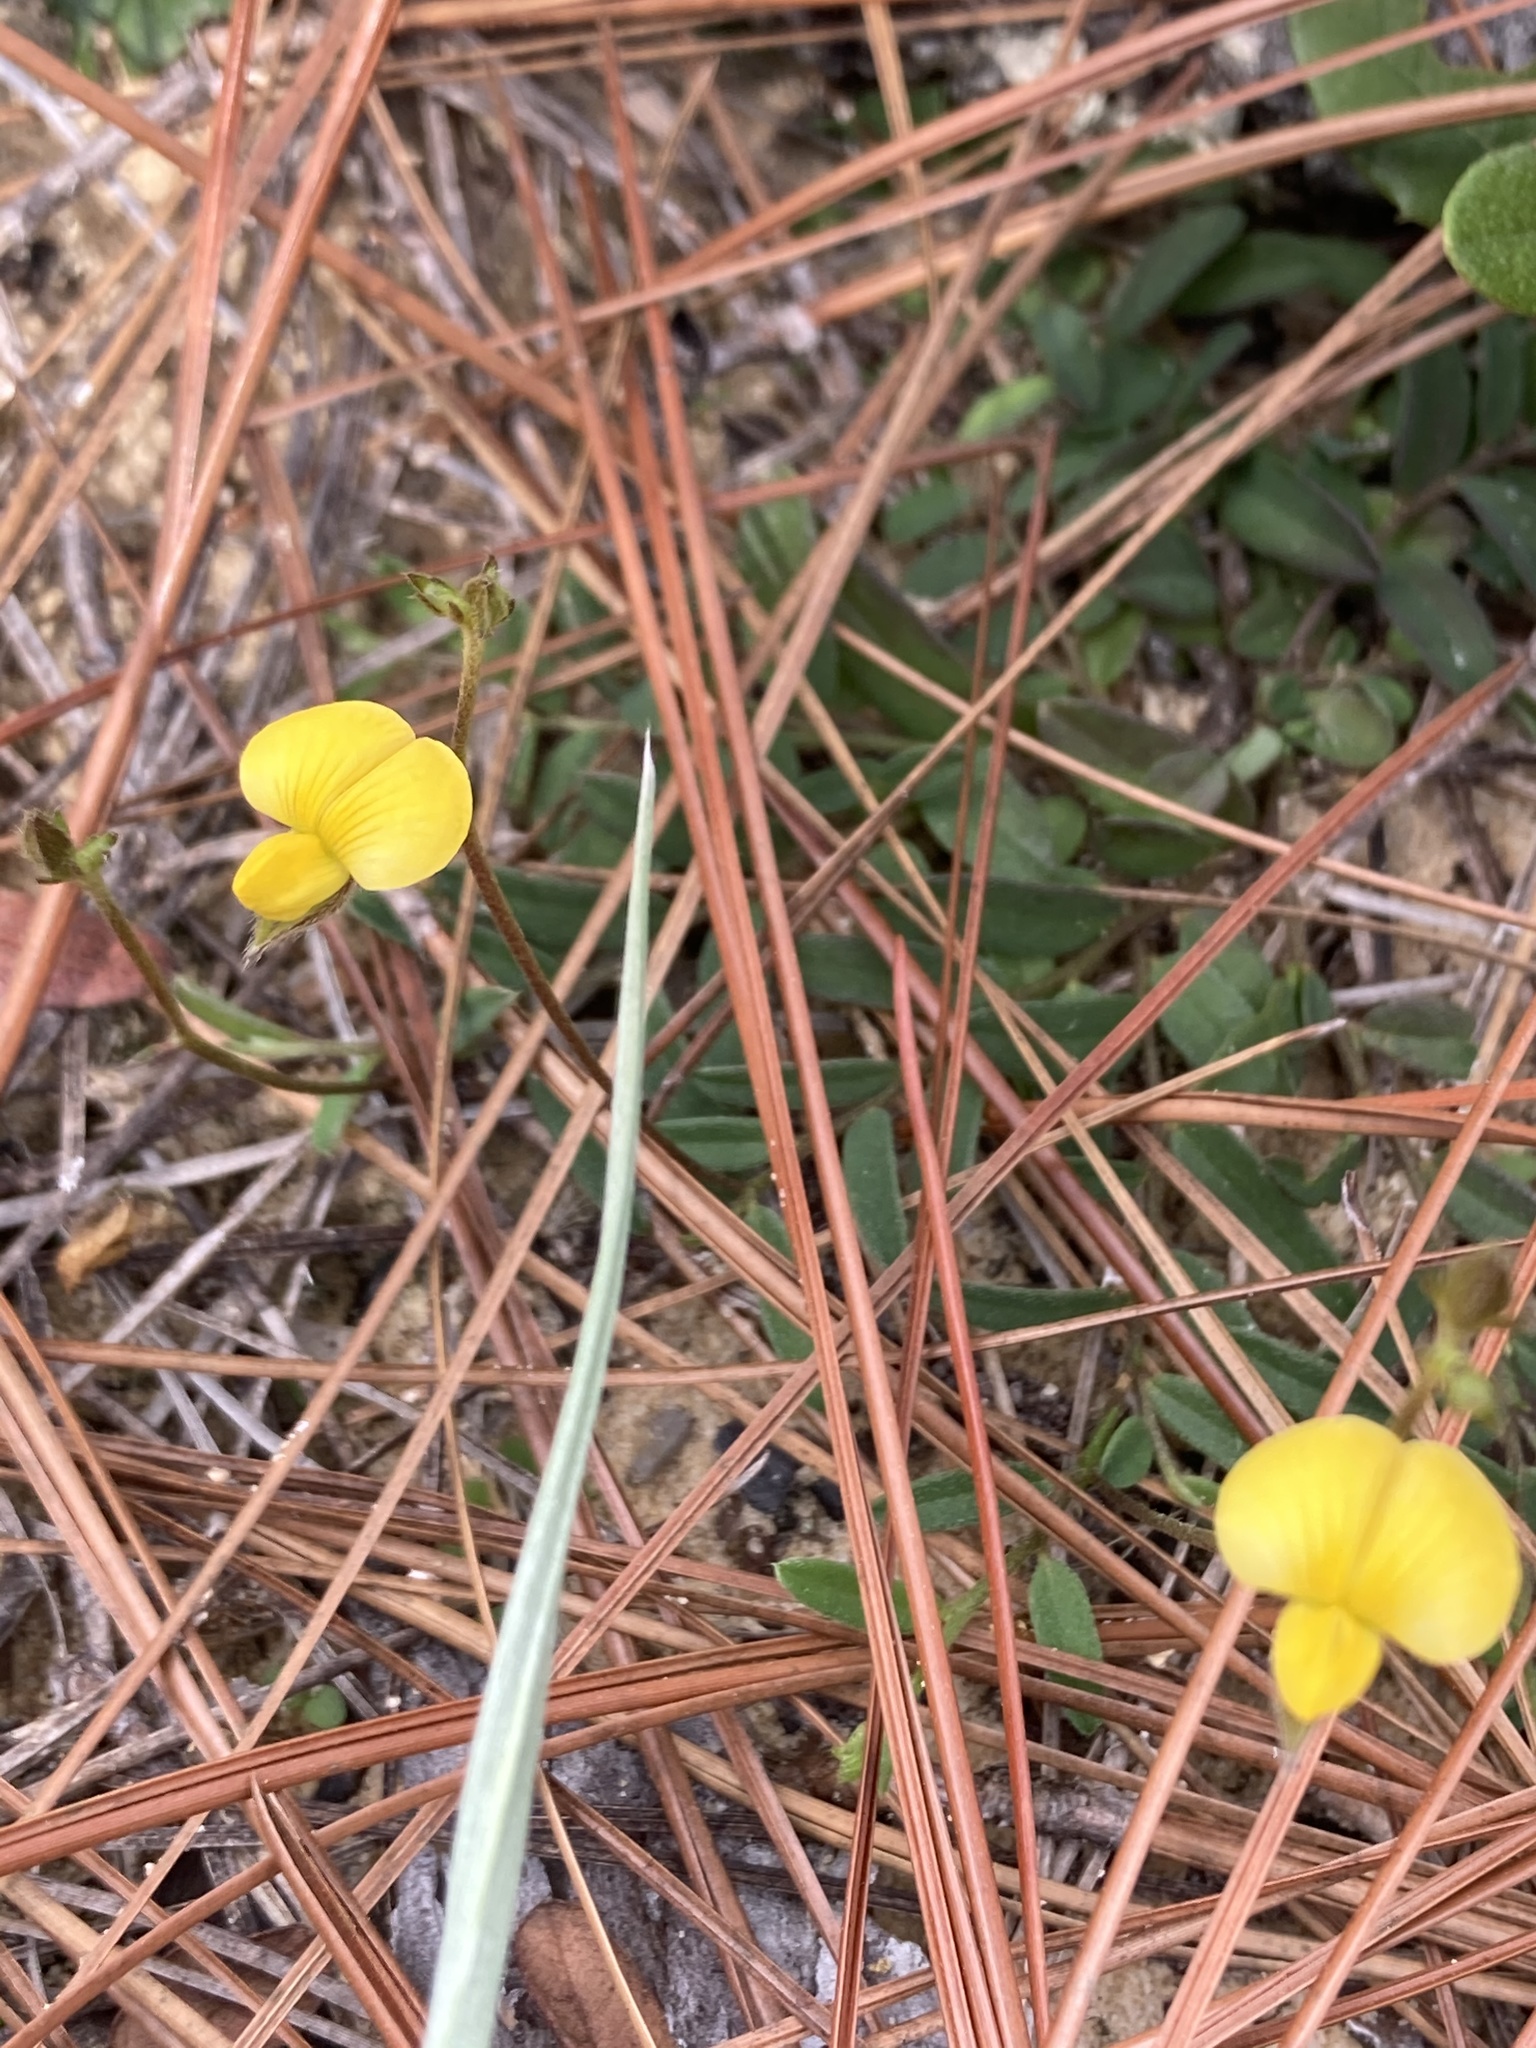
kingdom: Plantae
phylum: Tracheophyta
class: Magnoliopsida
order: Fabales
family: Fabaceae
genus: Crotalaria
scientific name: Crotalaria rotundifolia
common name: Prostrate rattlebox
